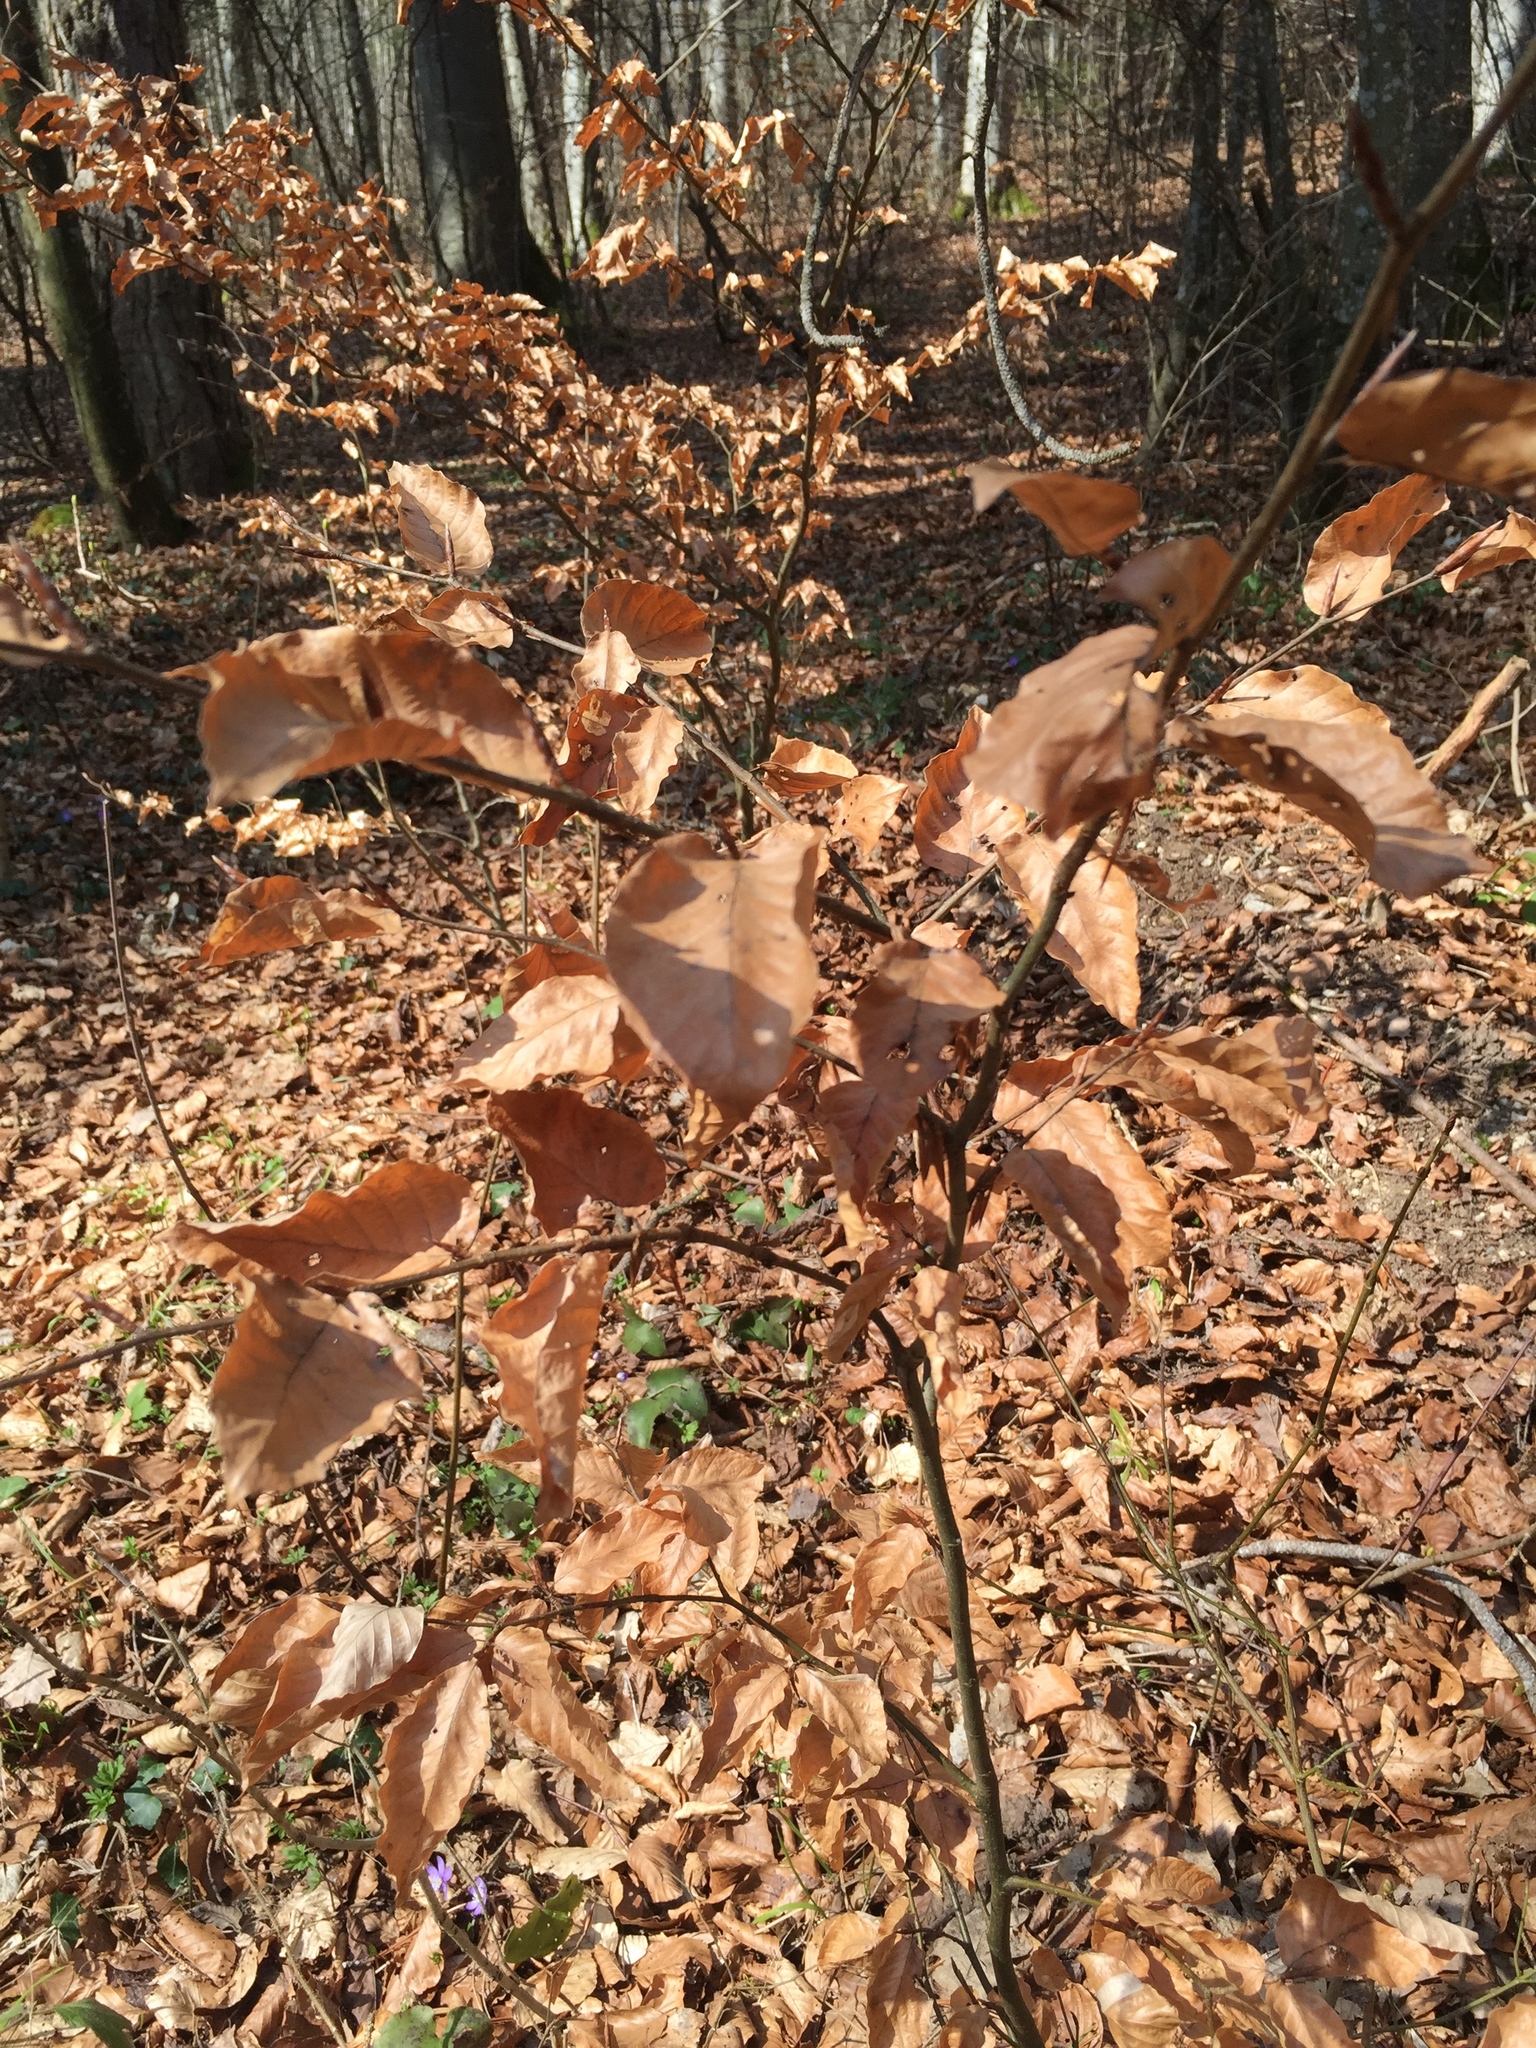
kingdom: Plantae
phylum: Tracheophyta
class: Magnoliopsida
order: Fagales
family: Fagaceae
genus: Fagus
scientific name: Fagus sylvatica
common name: Beech
